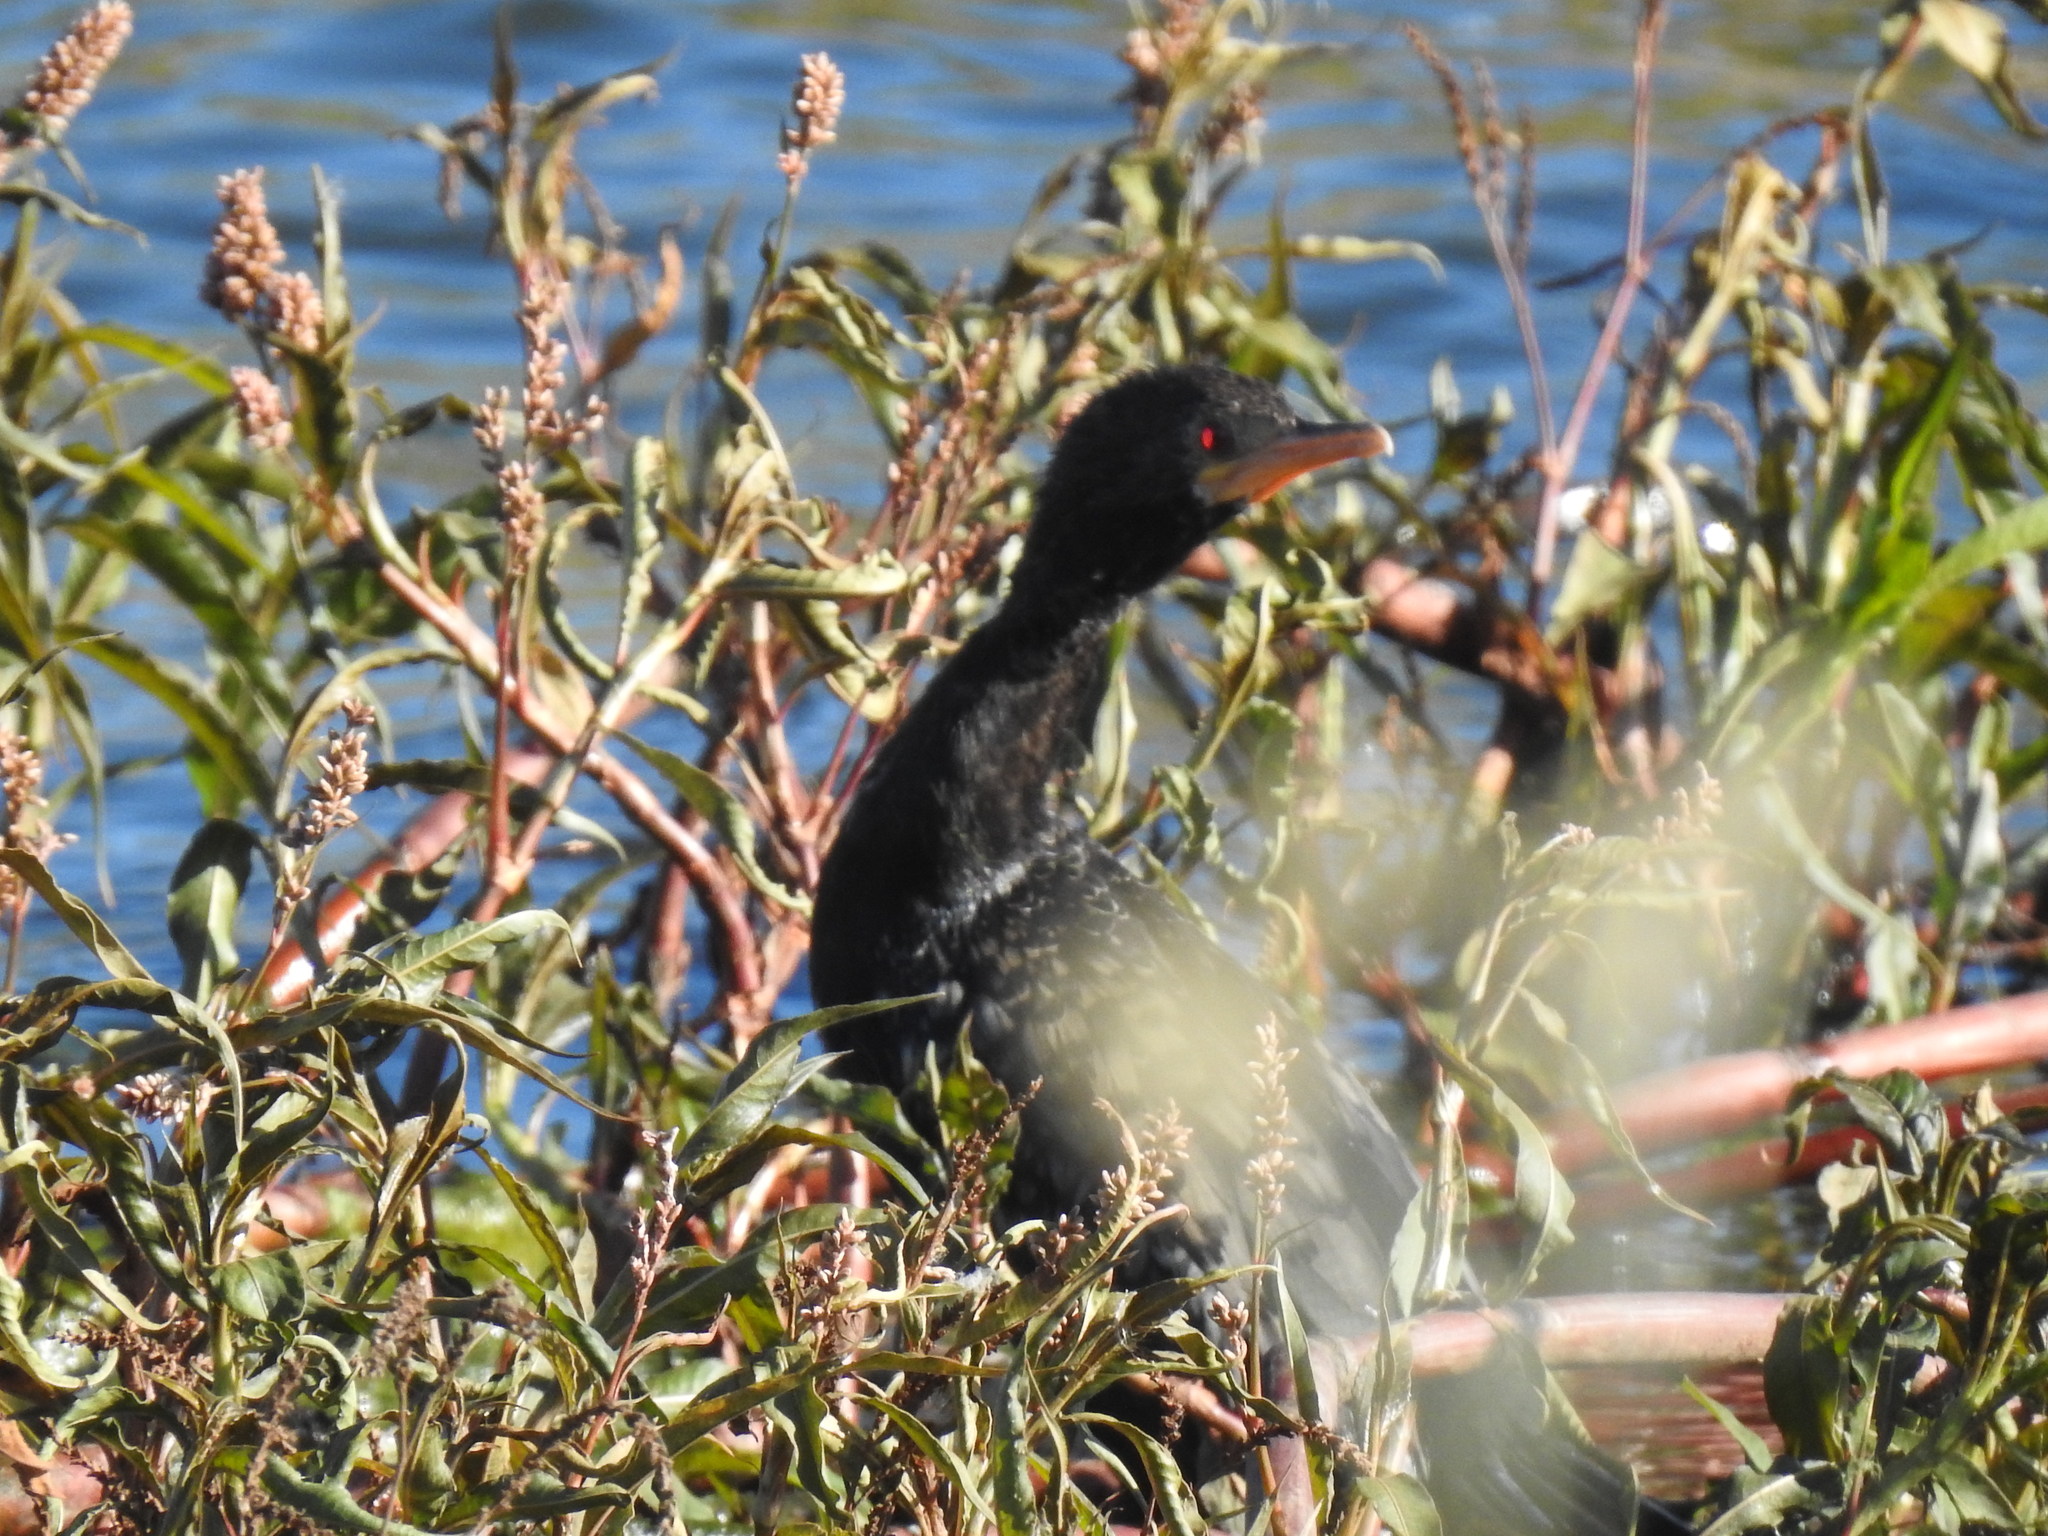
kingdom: Animalia
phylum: Chordata
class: Aves
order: Suliformes
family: Phalacrocoracidae
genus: Microcarbo
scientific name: Microcarbo africanus
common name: Long-tailed cormorant
